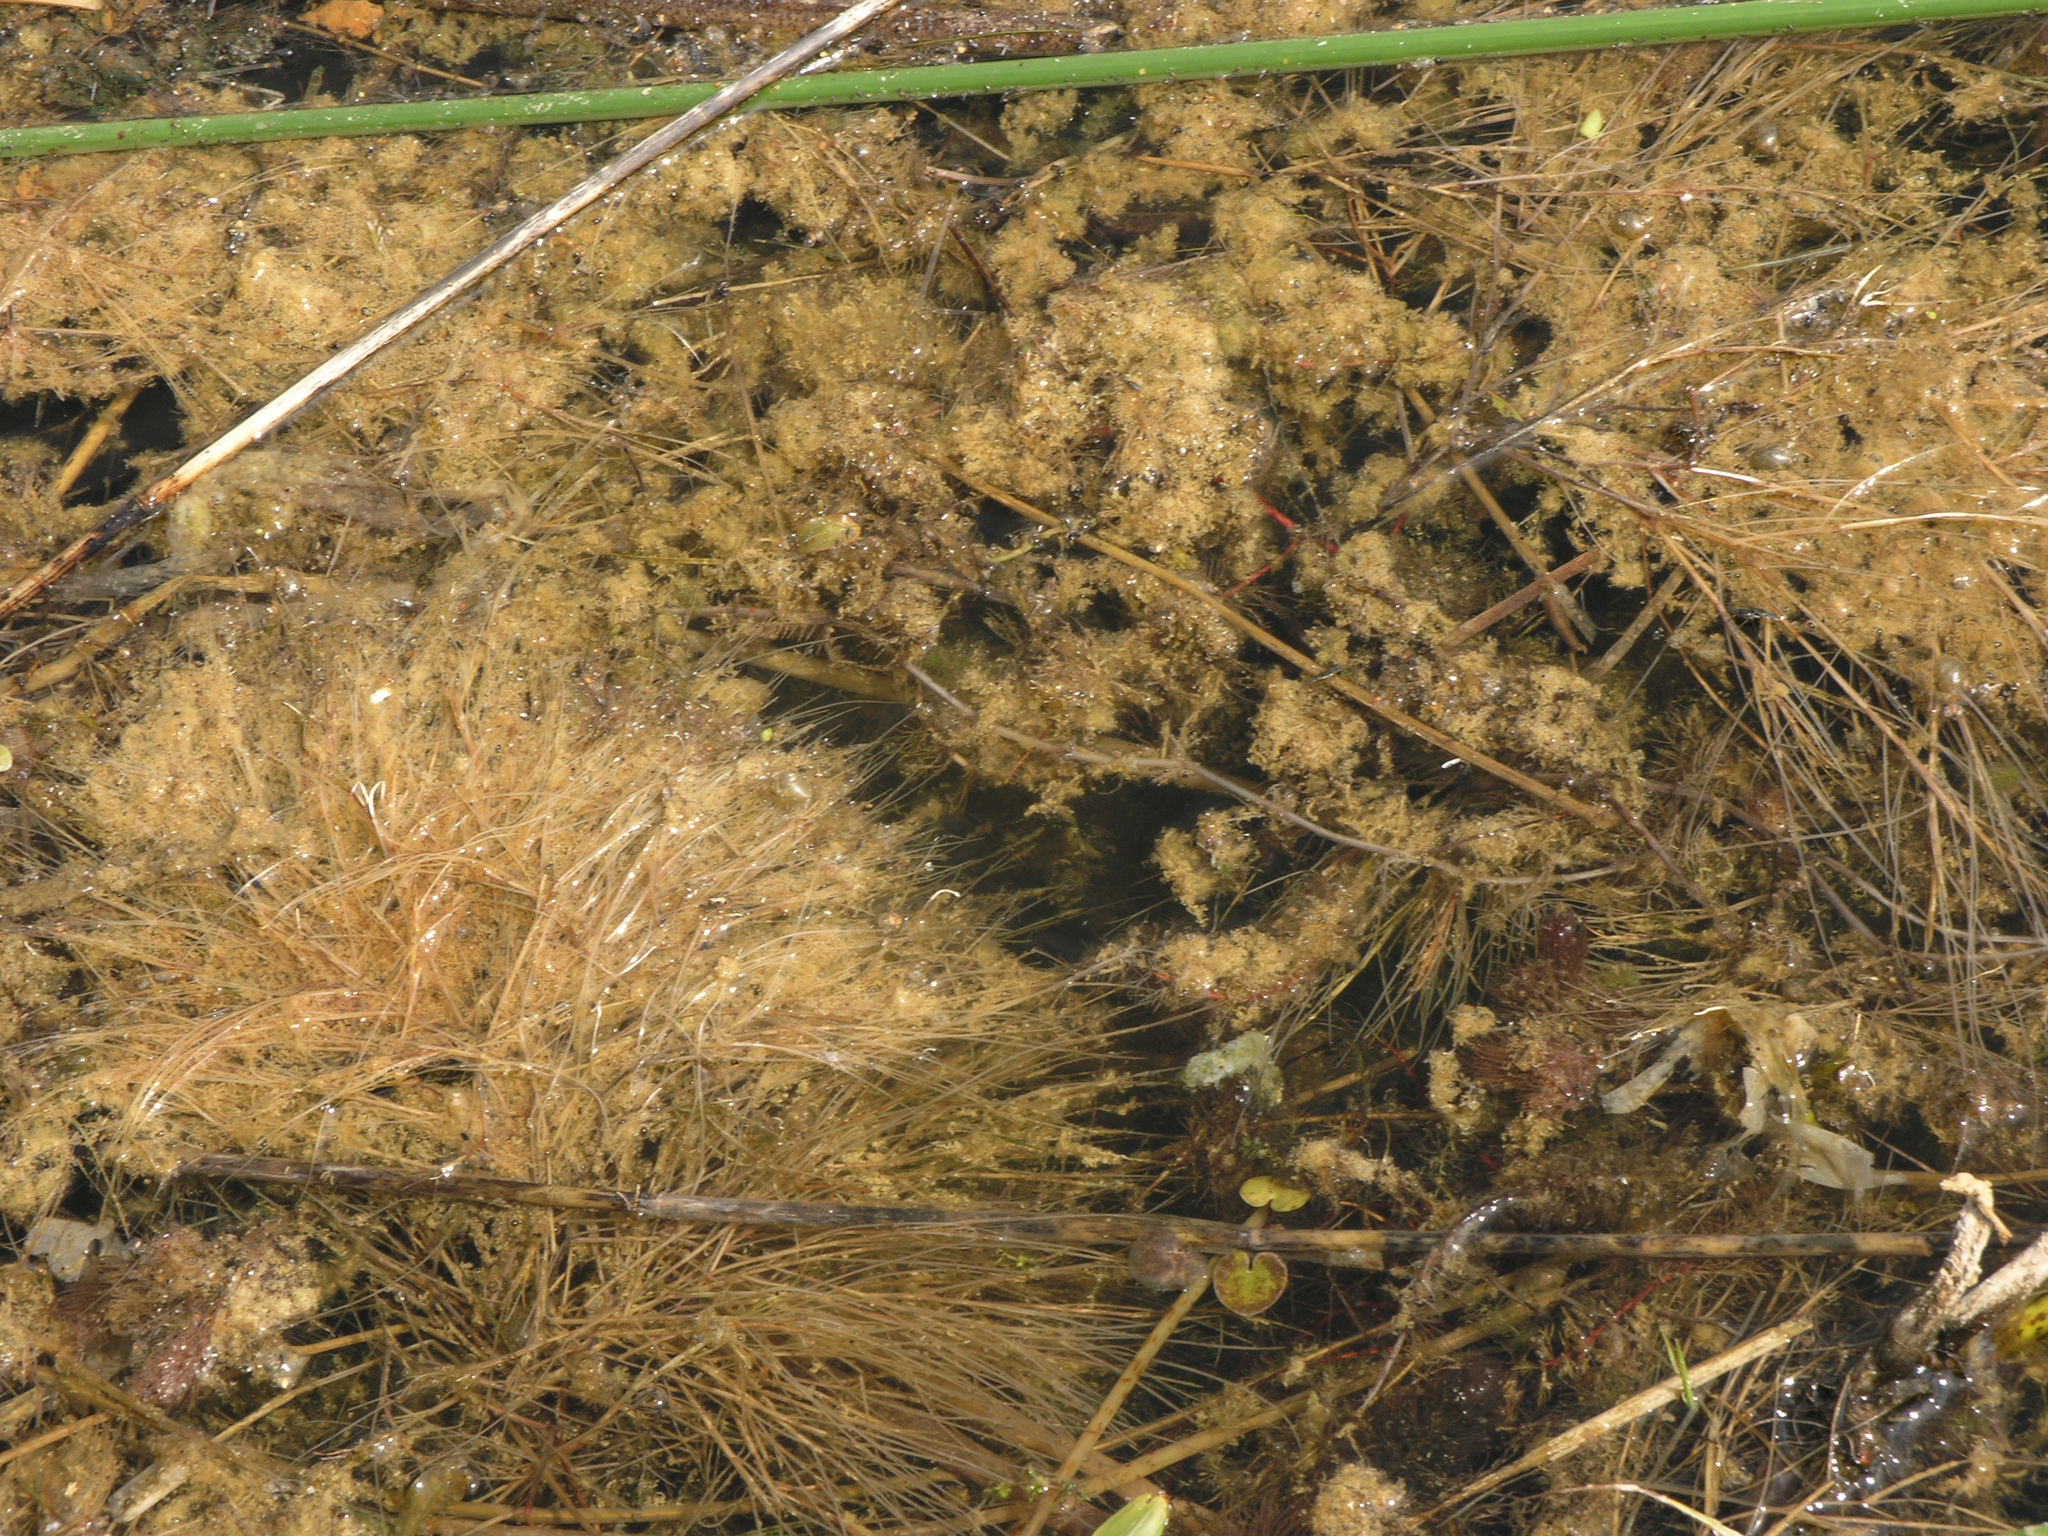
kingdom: Plantae
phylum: Tracheophyta
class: Liliopsida
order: Alismatales
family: Potamogetonaceae
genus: Stuckenia
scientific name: Stuckenia pectinata
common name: Sago pondweed
